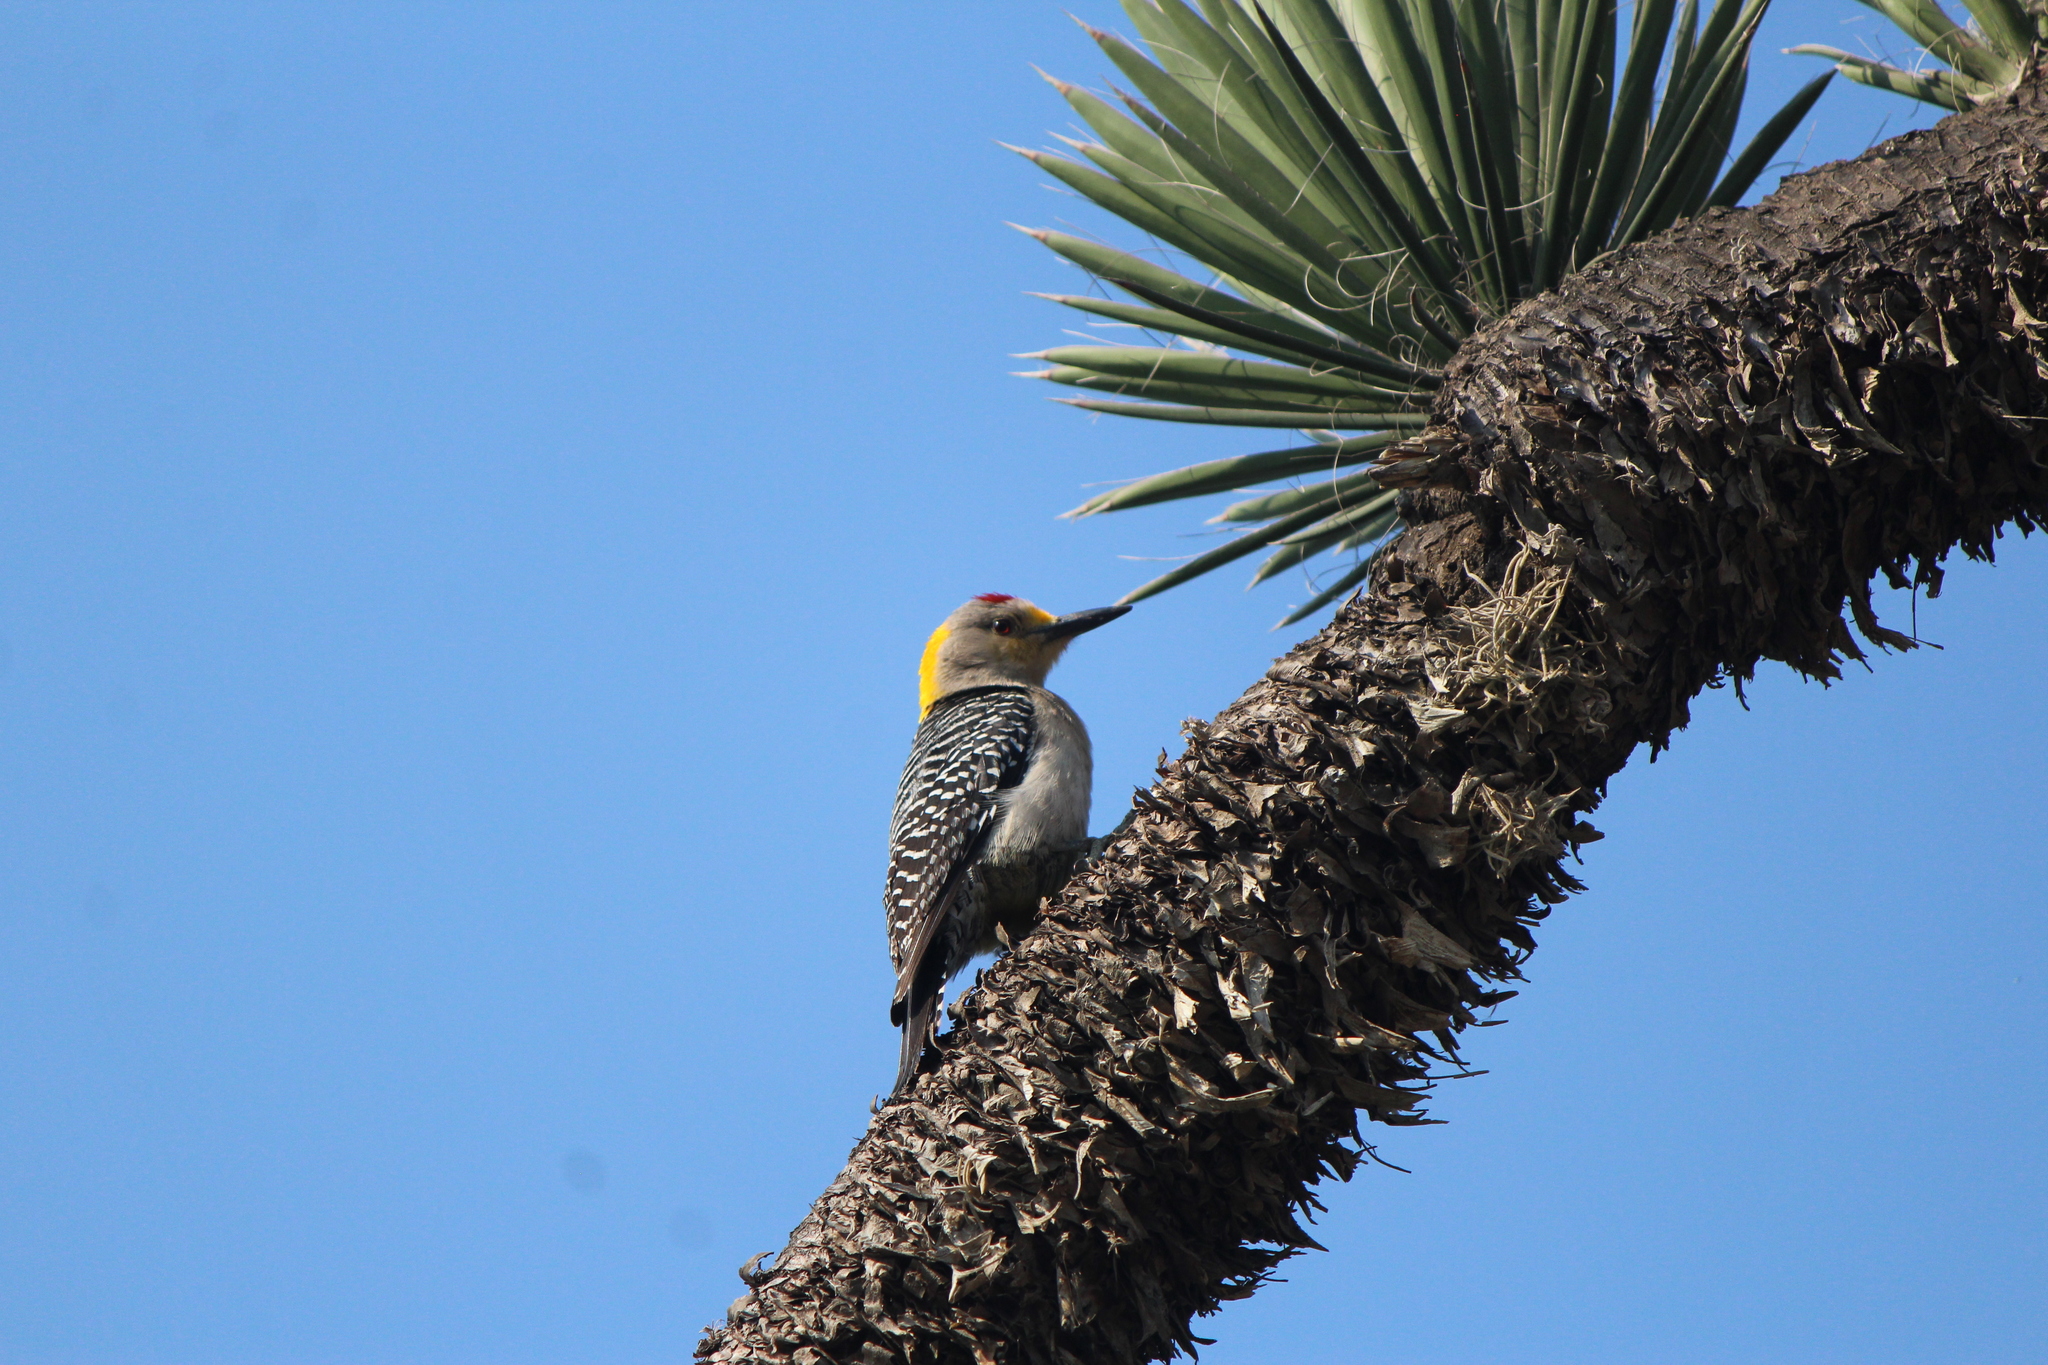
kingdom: Animalia
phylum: Chordata
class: Aves
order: Piciformes
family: Picidae
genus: Melanerpes
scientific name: Melanerpes aurifrons
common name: Golden-fronted woodpecker
